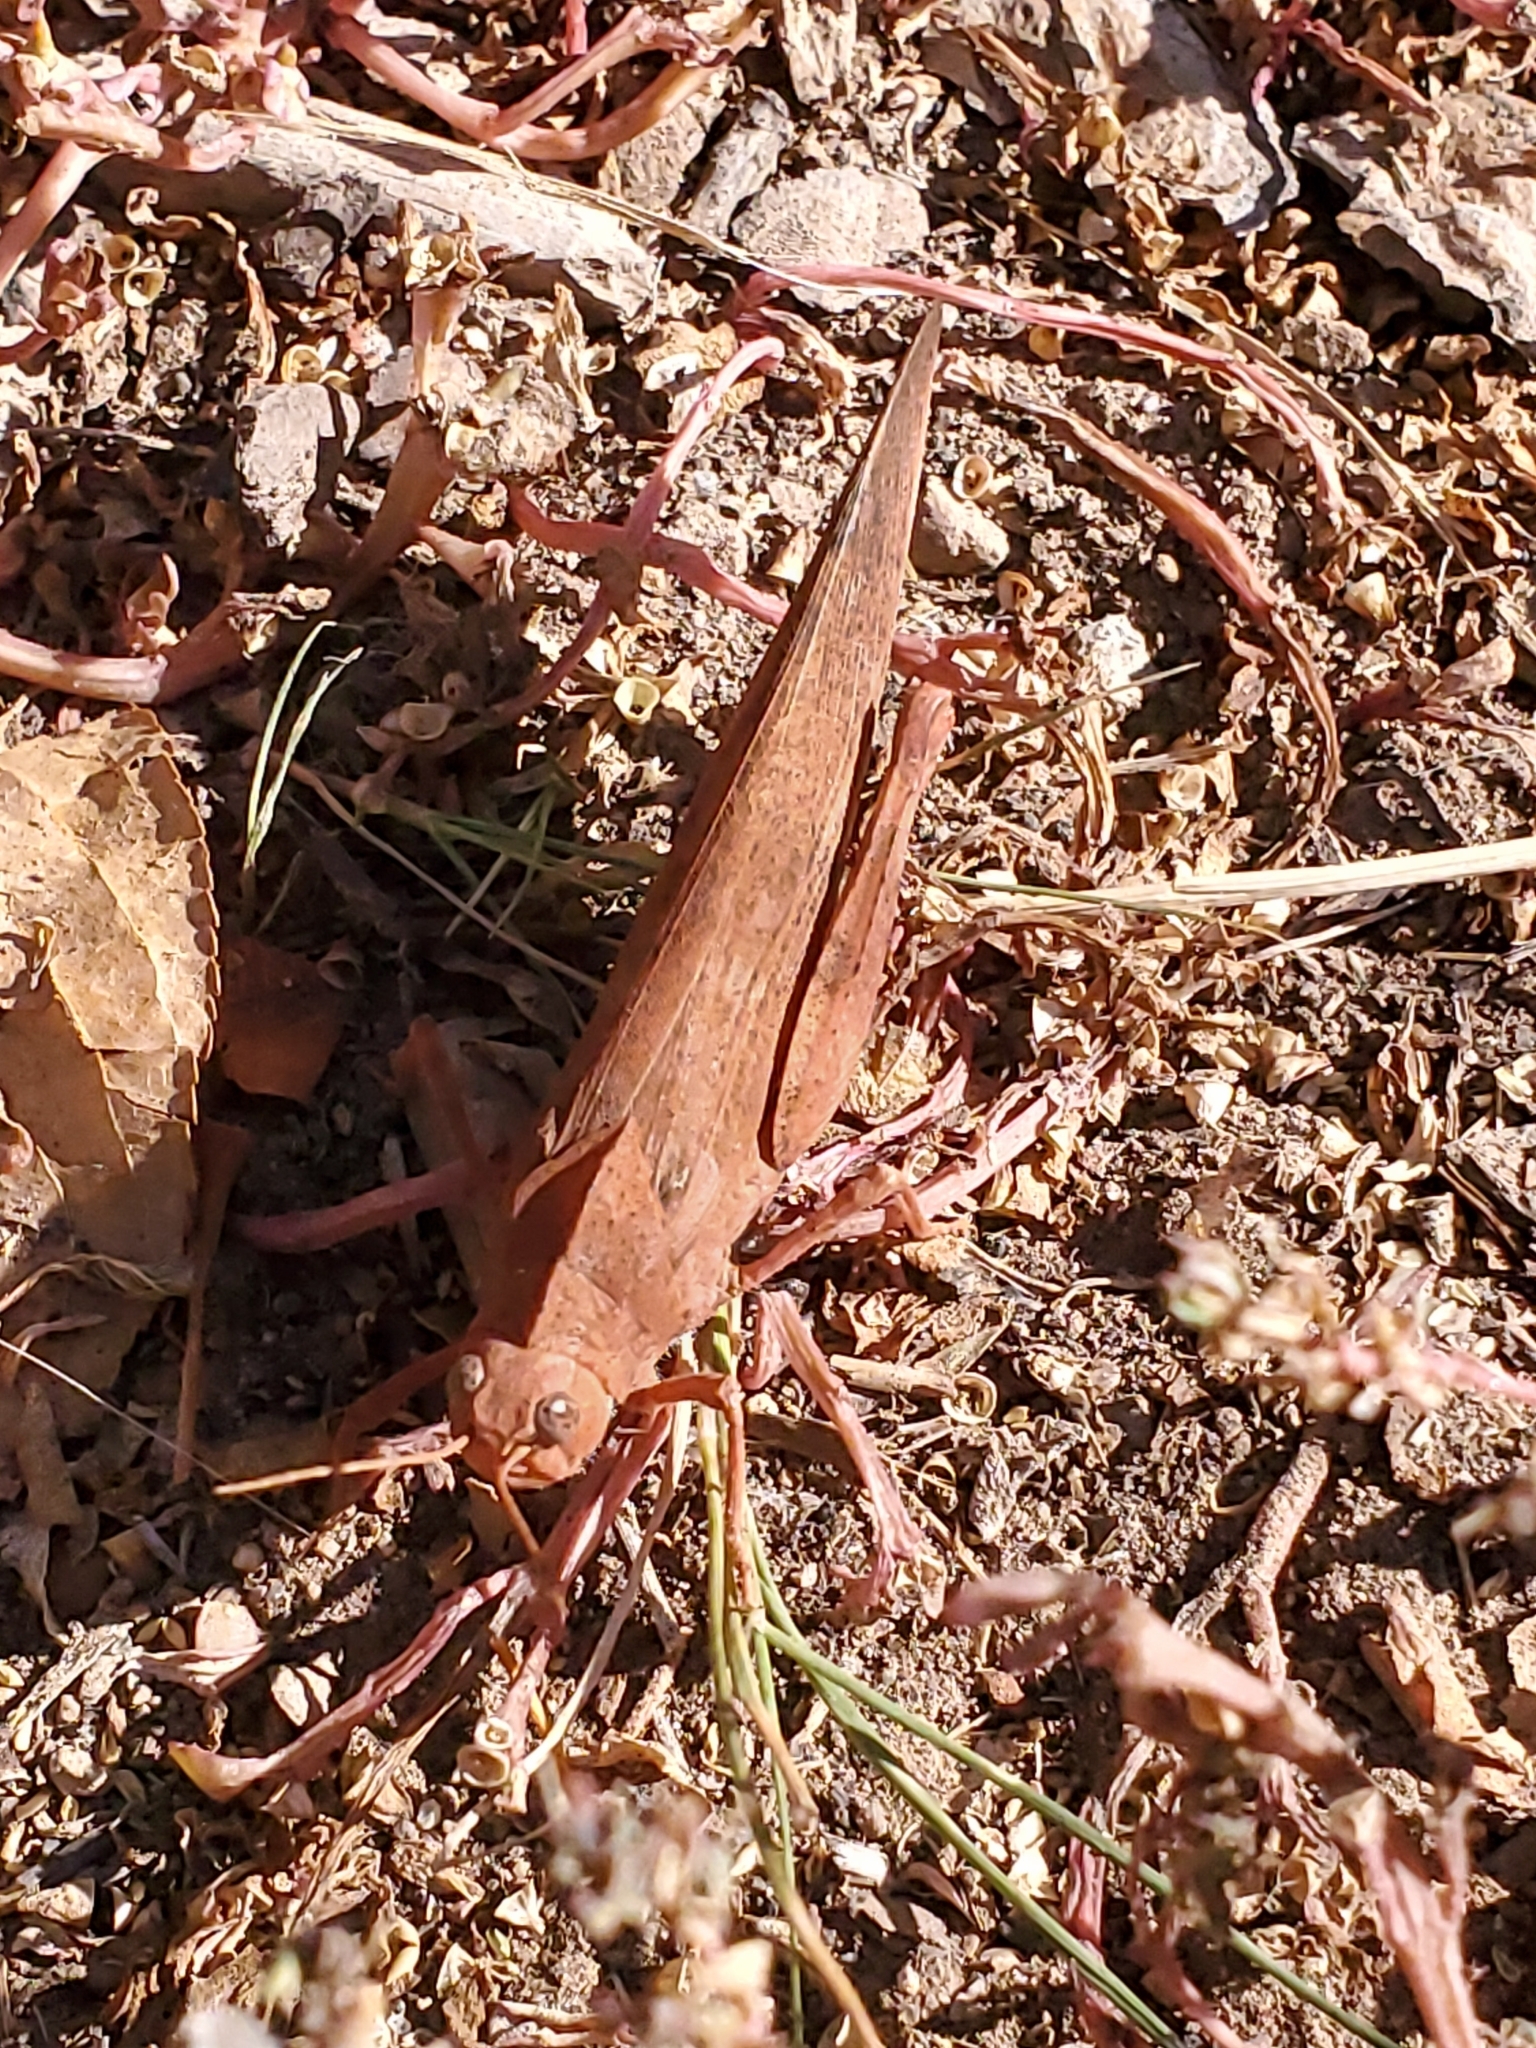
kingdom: Animalia
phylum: Arthropoda
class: Insecta
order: Orthoptera
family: Acrididae
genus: Dissosteira
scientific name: Dissosteira carolina
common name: Carolina grasshopper
